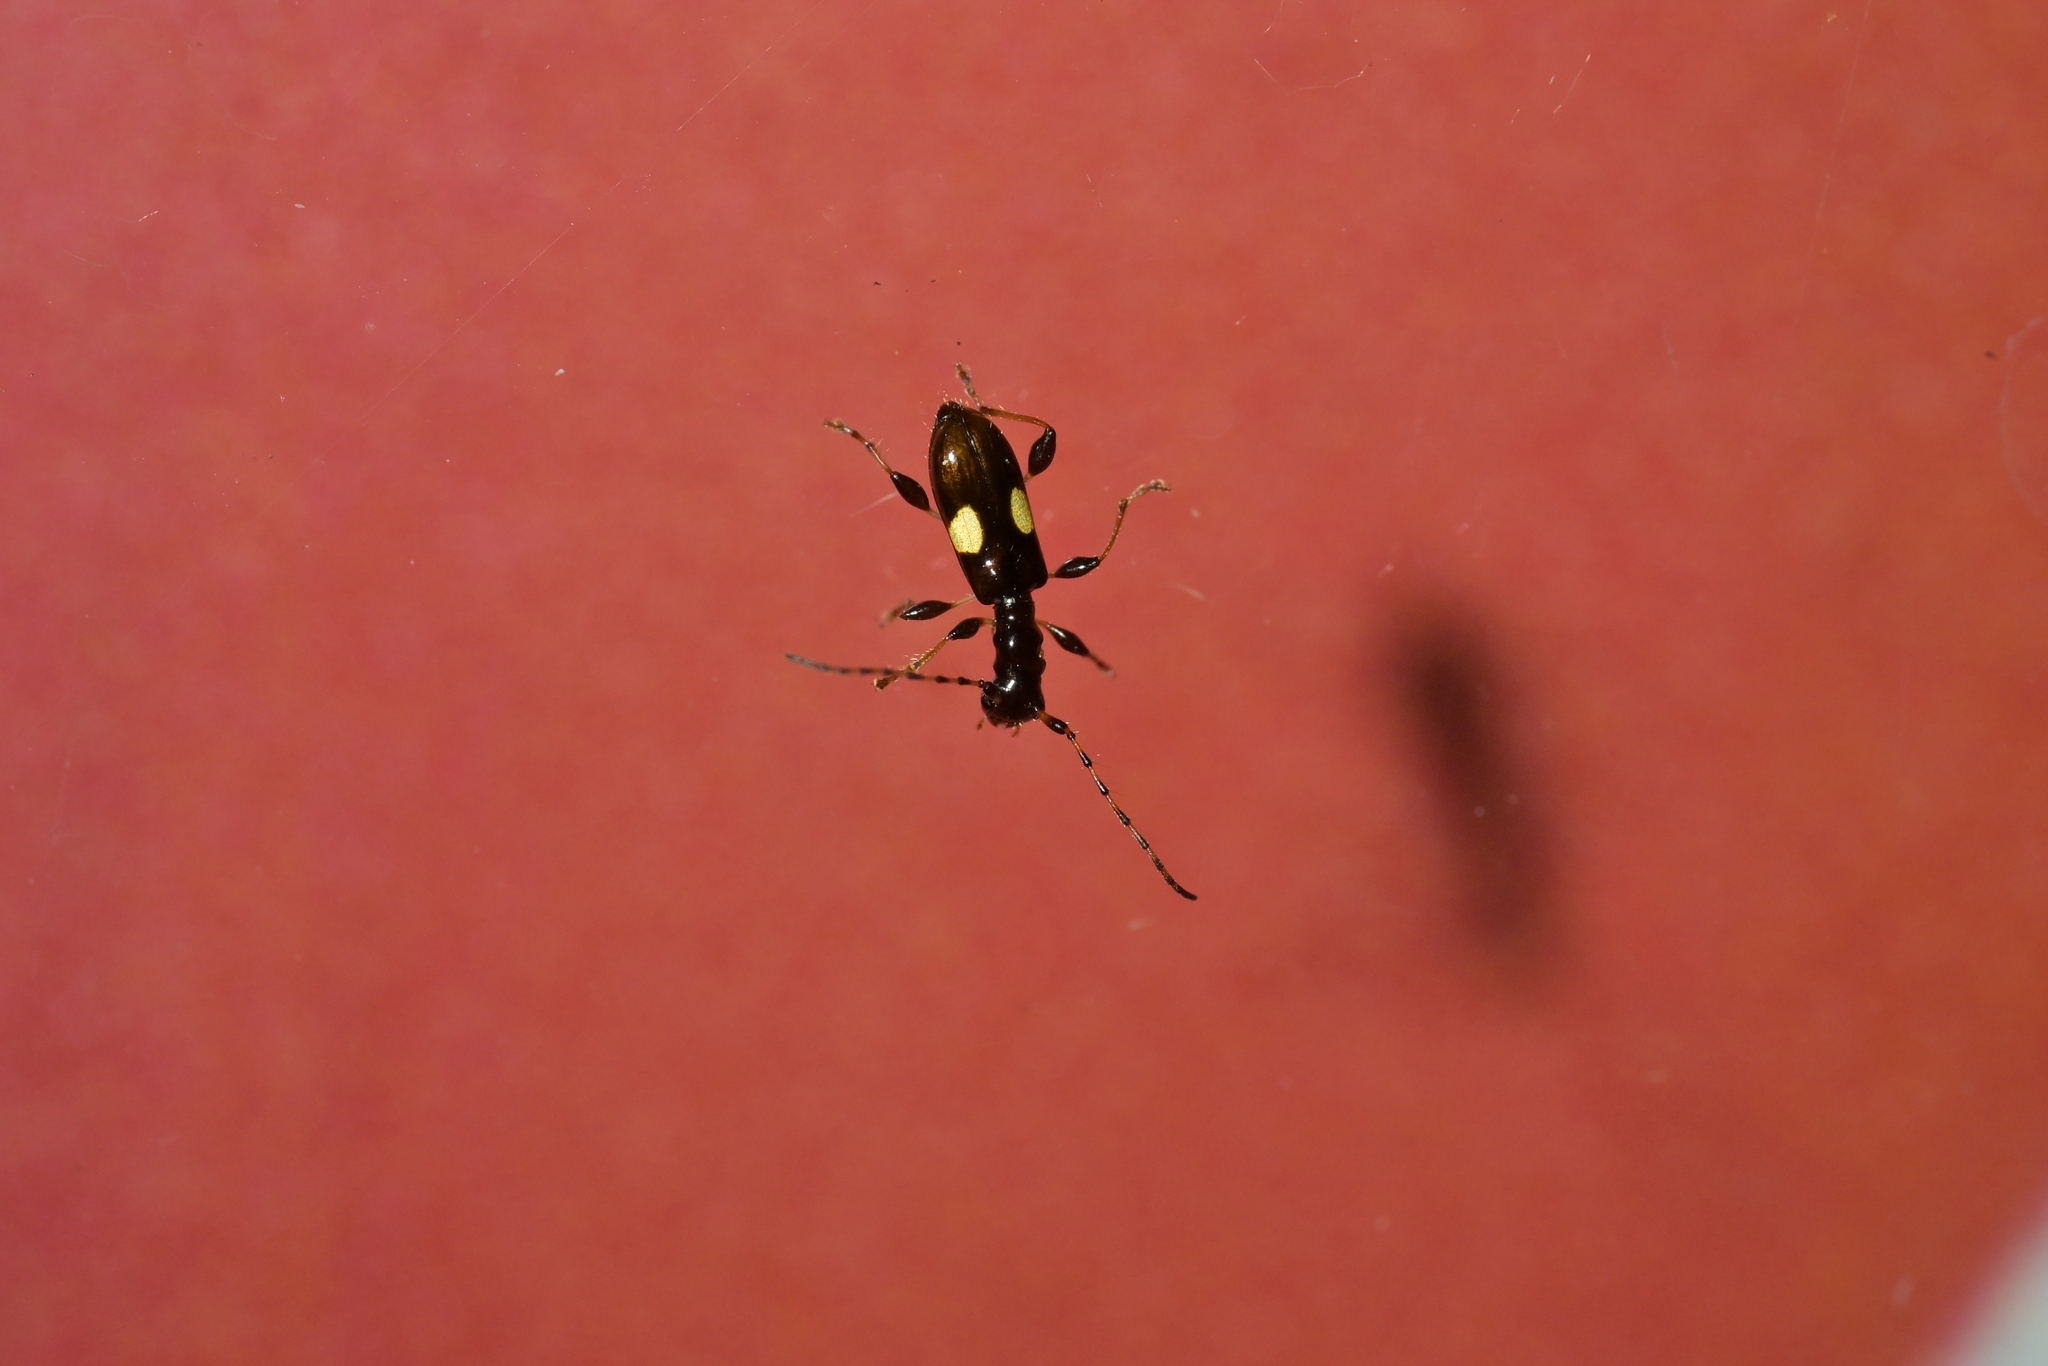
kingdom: Animalia
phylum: Arthropoda
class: Insecta
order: Coleoptera
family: Cerambycidae
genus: Zorion
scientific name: Zorion guttigerum
